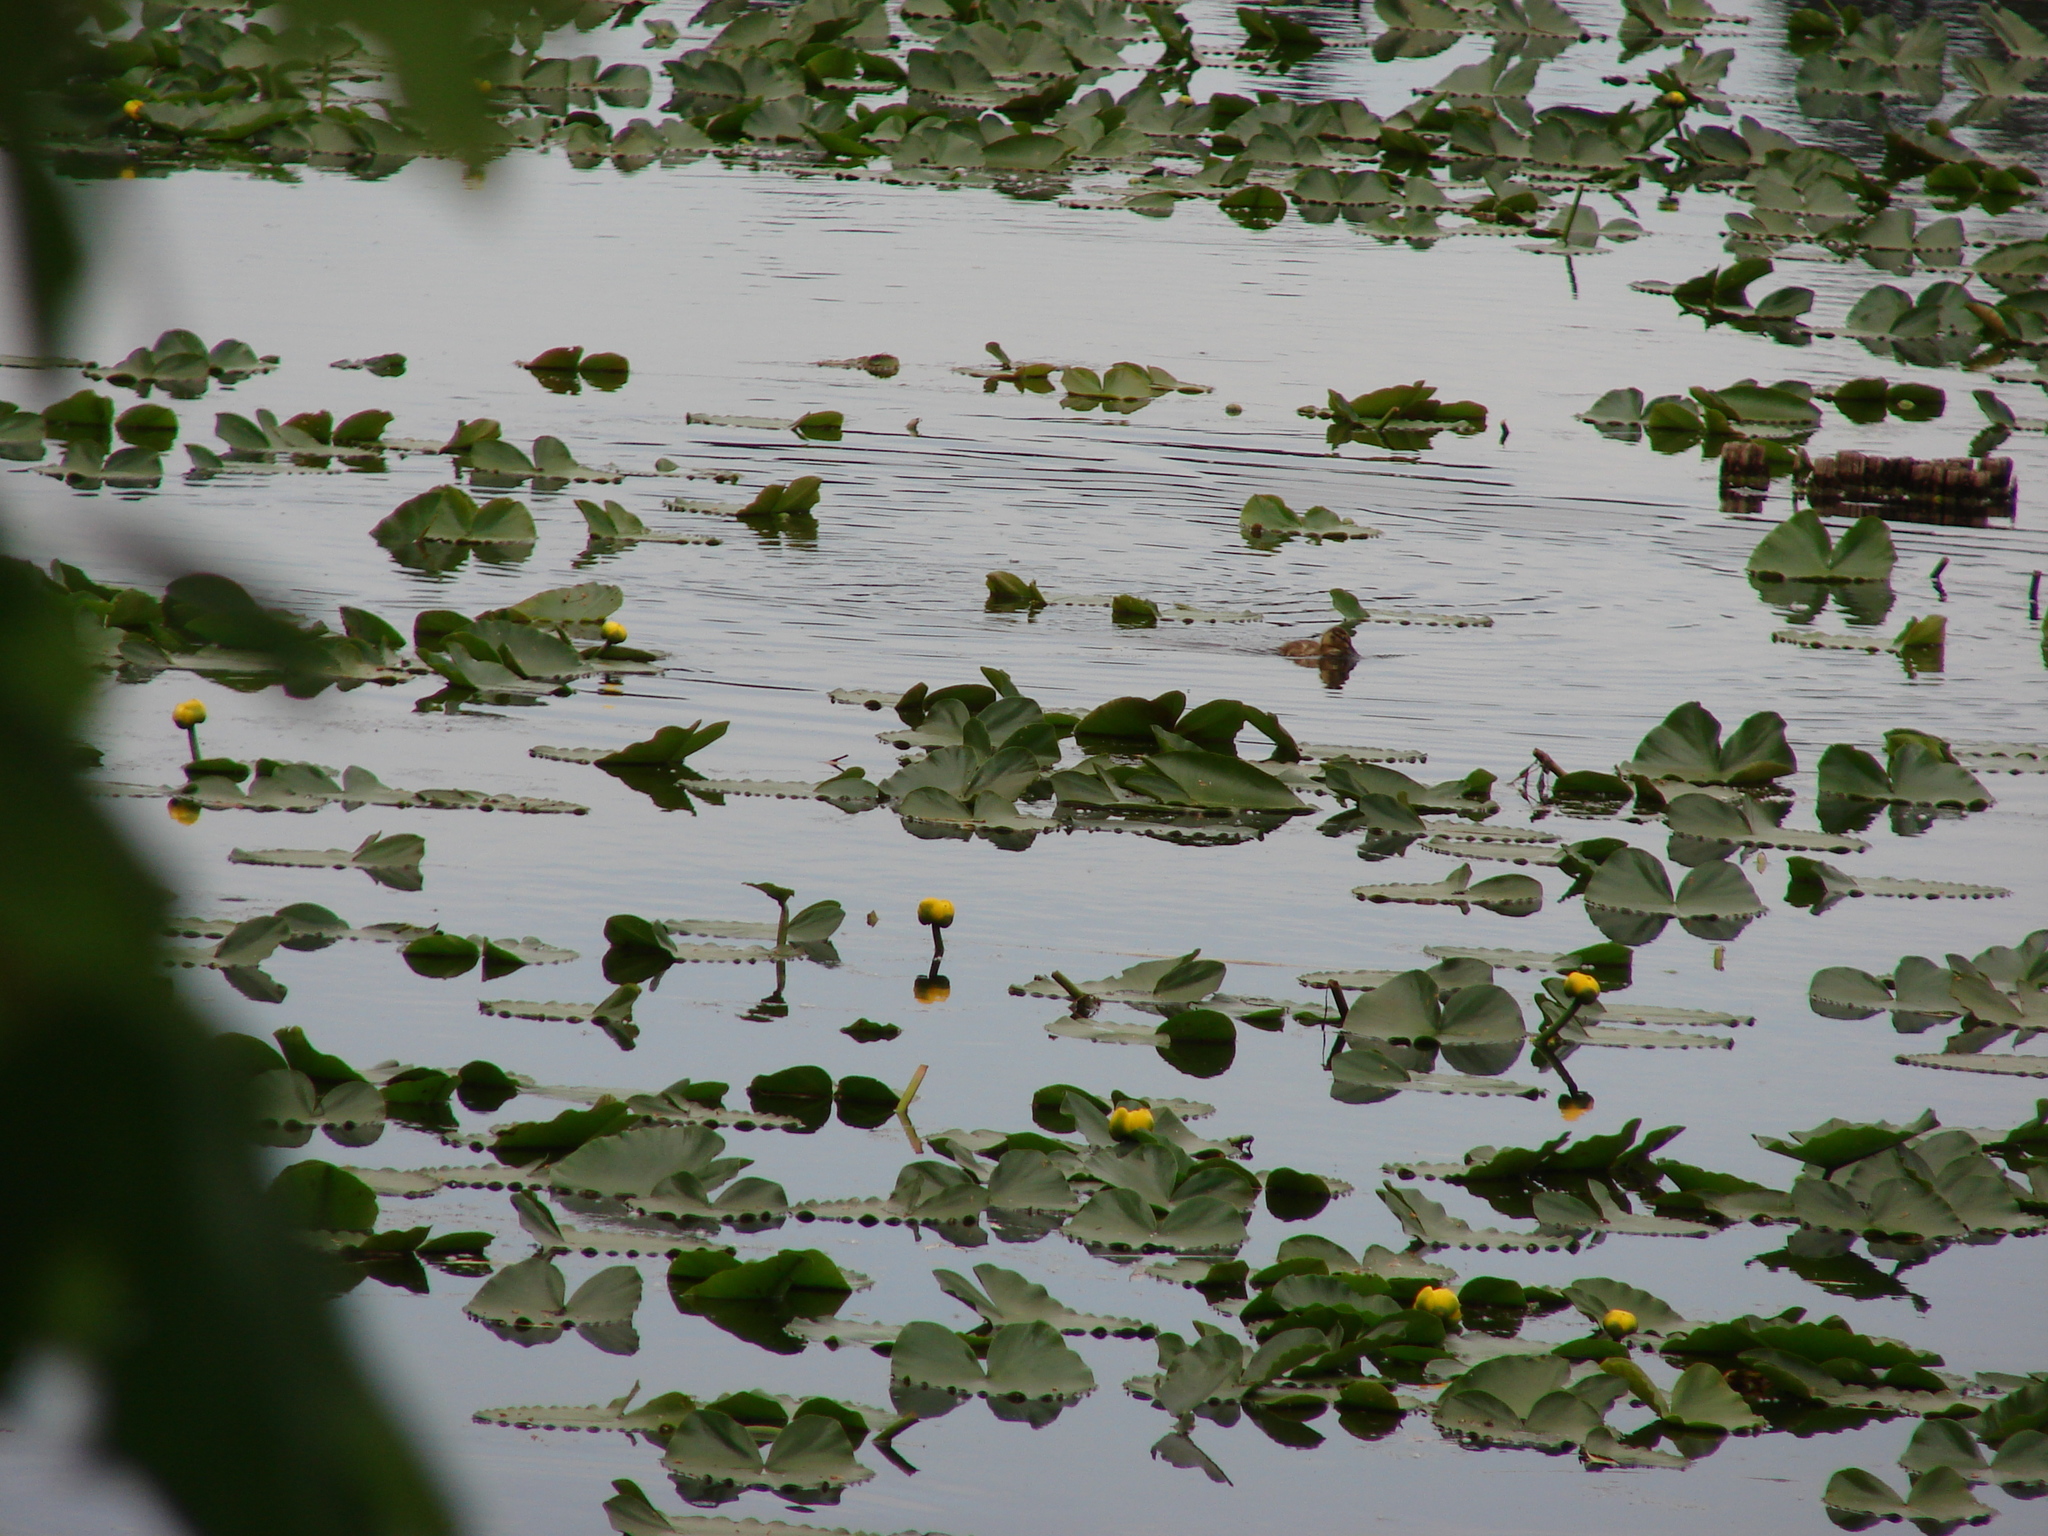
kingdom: Plantae
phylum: Tracheophyta
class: Magnoliopsida
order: Nymphaeales
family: Nymphaeaceae
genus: Nuphar
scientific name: Nuphar polysepala
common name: Rocky mountain cow-lily
